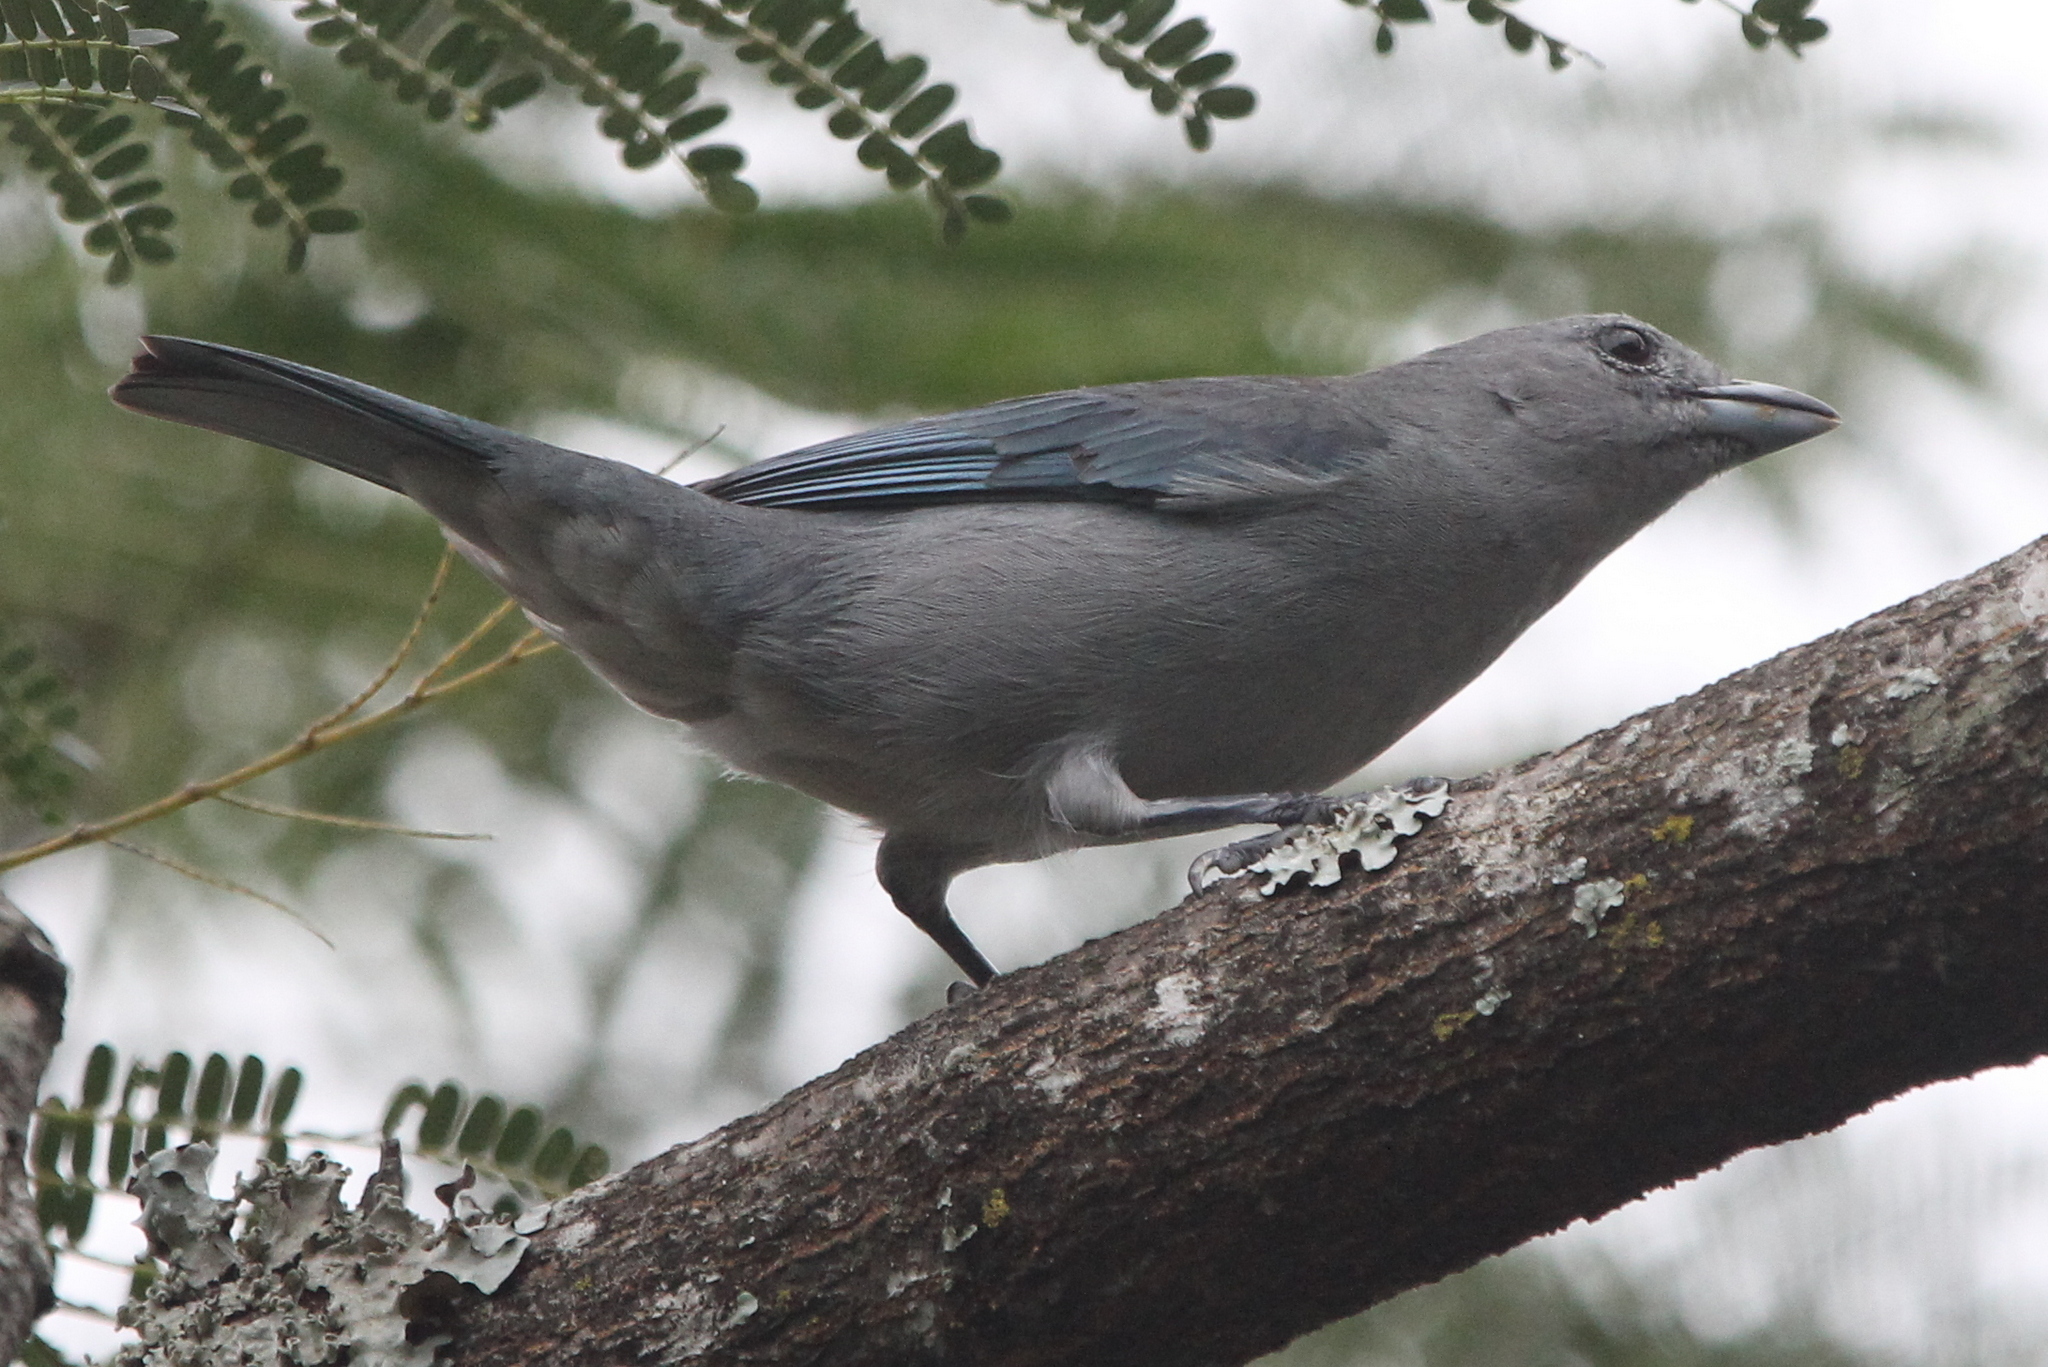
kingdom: Animalia
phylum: Chordata
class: Aves
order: Passeriformes
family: Thraupidae
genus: Thraupis
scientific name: Thraupis sayaca
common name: Sayaca tanager
